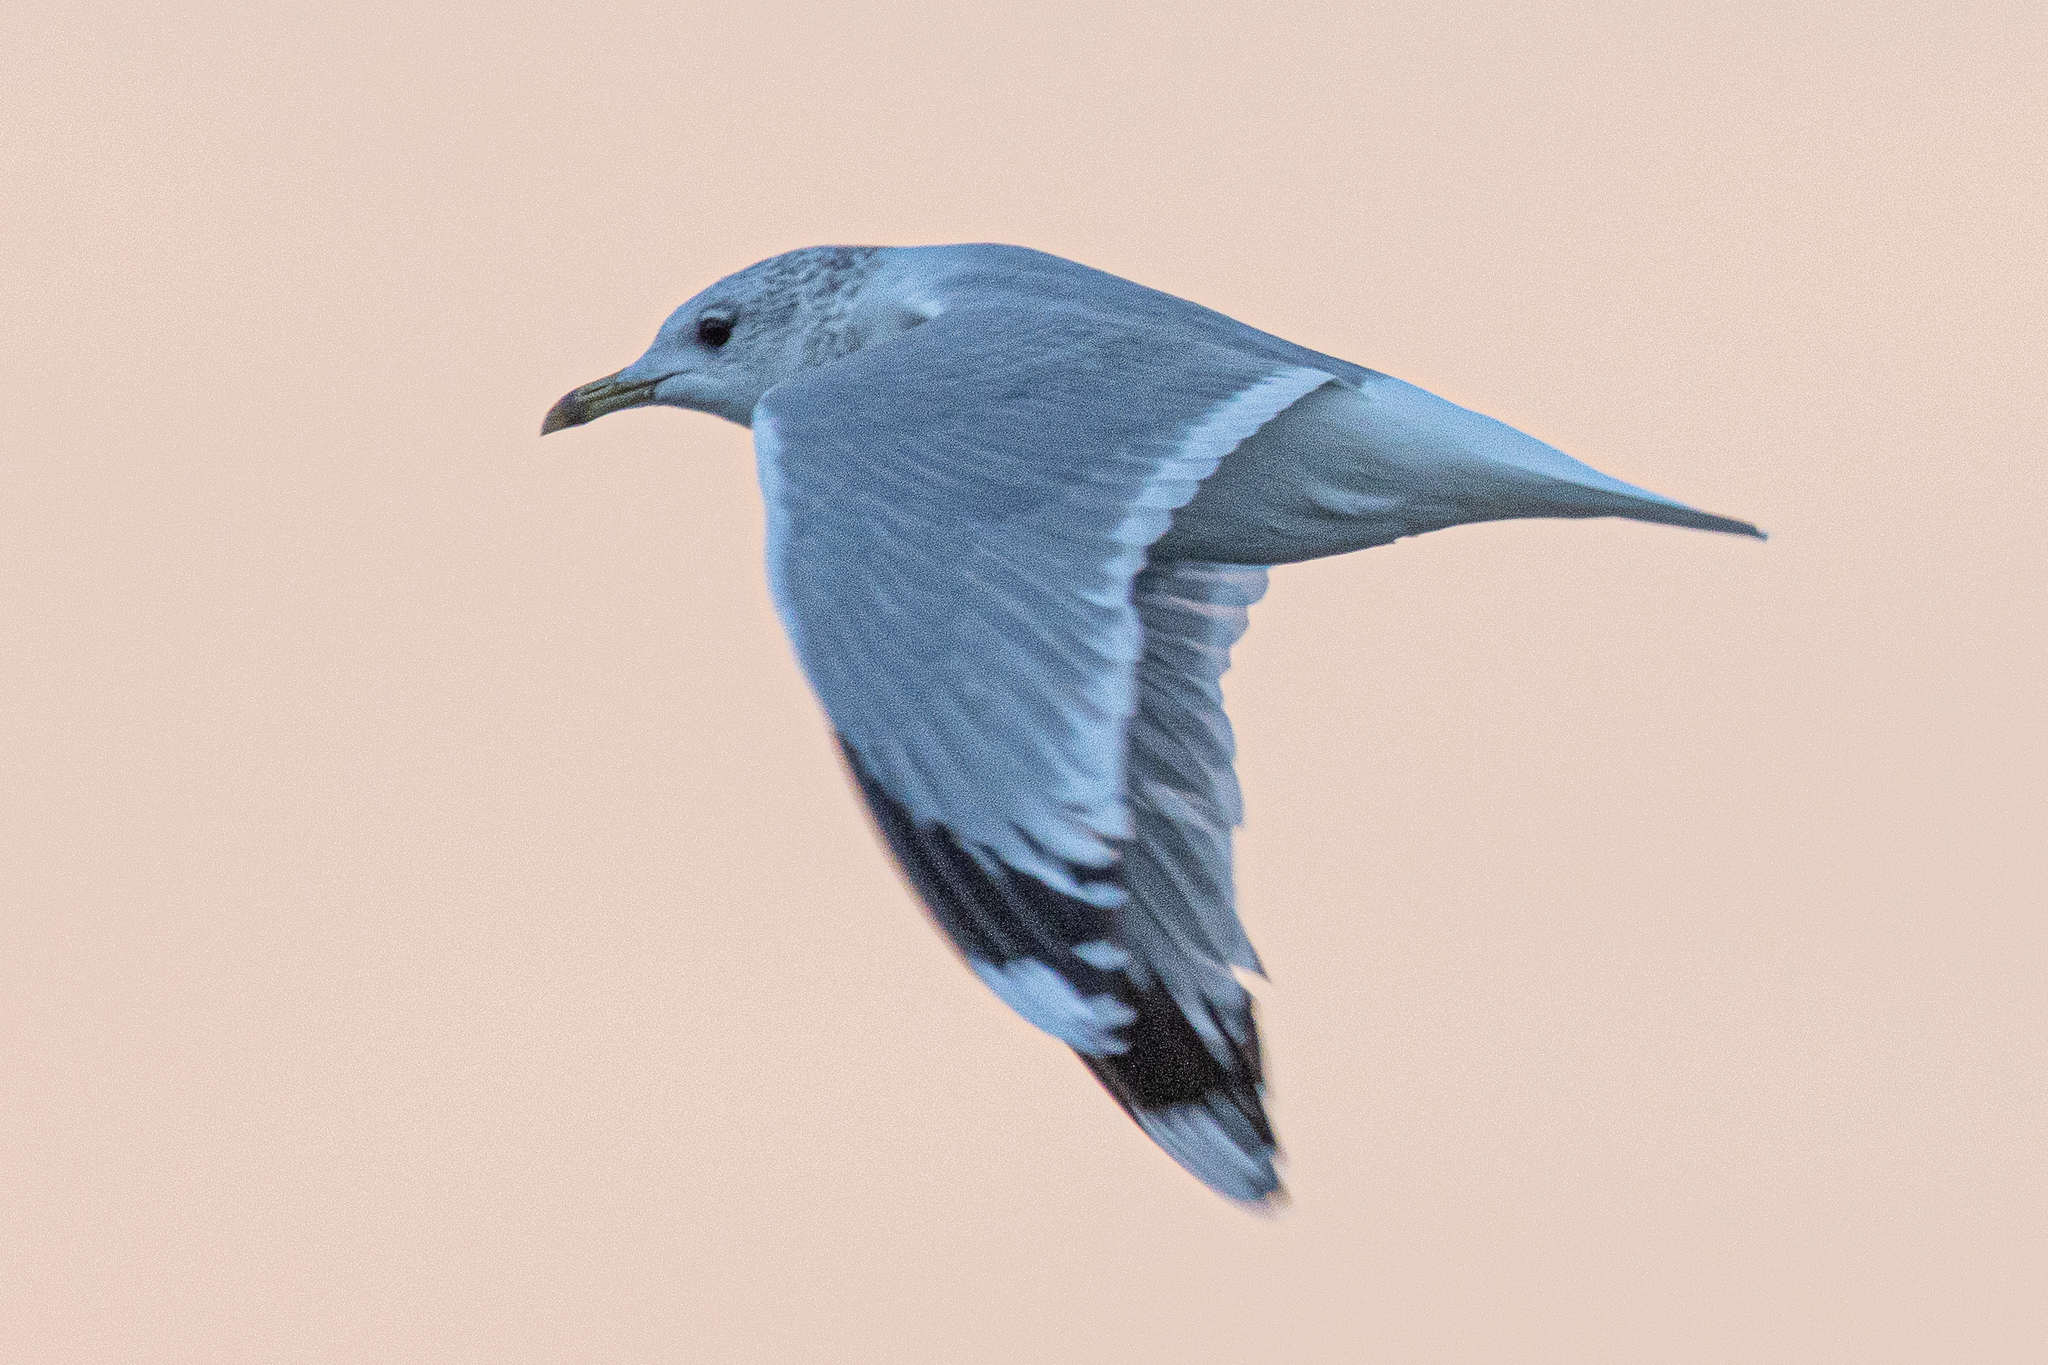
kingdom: Animalia
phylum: Chordata
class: Aves
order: Charadriiformes
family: Laridae
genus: Larus
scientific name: Larus canus
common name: Mew gull
